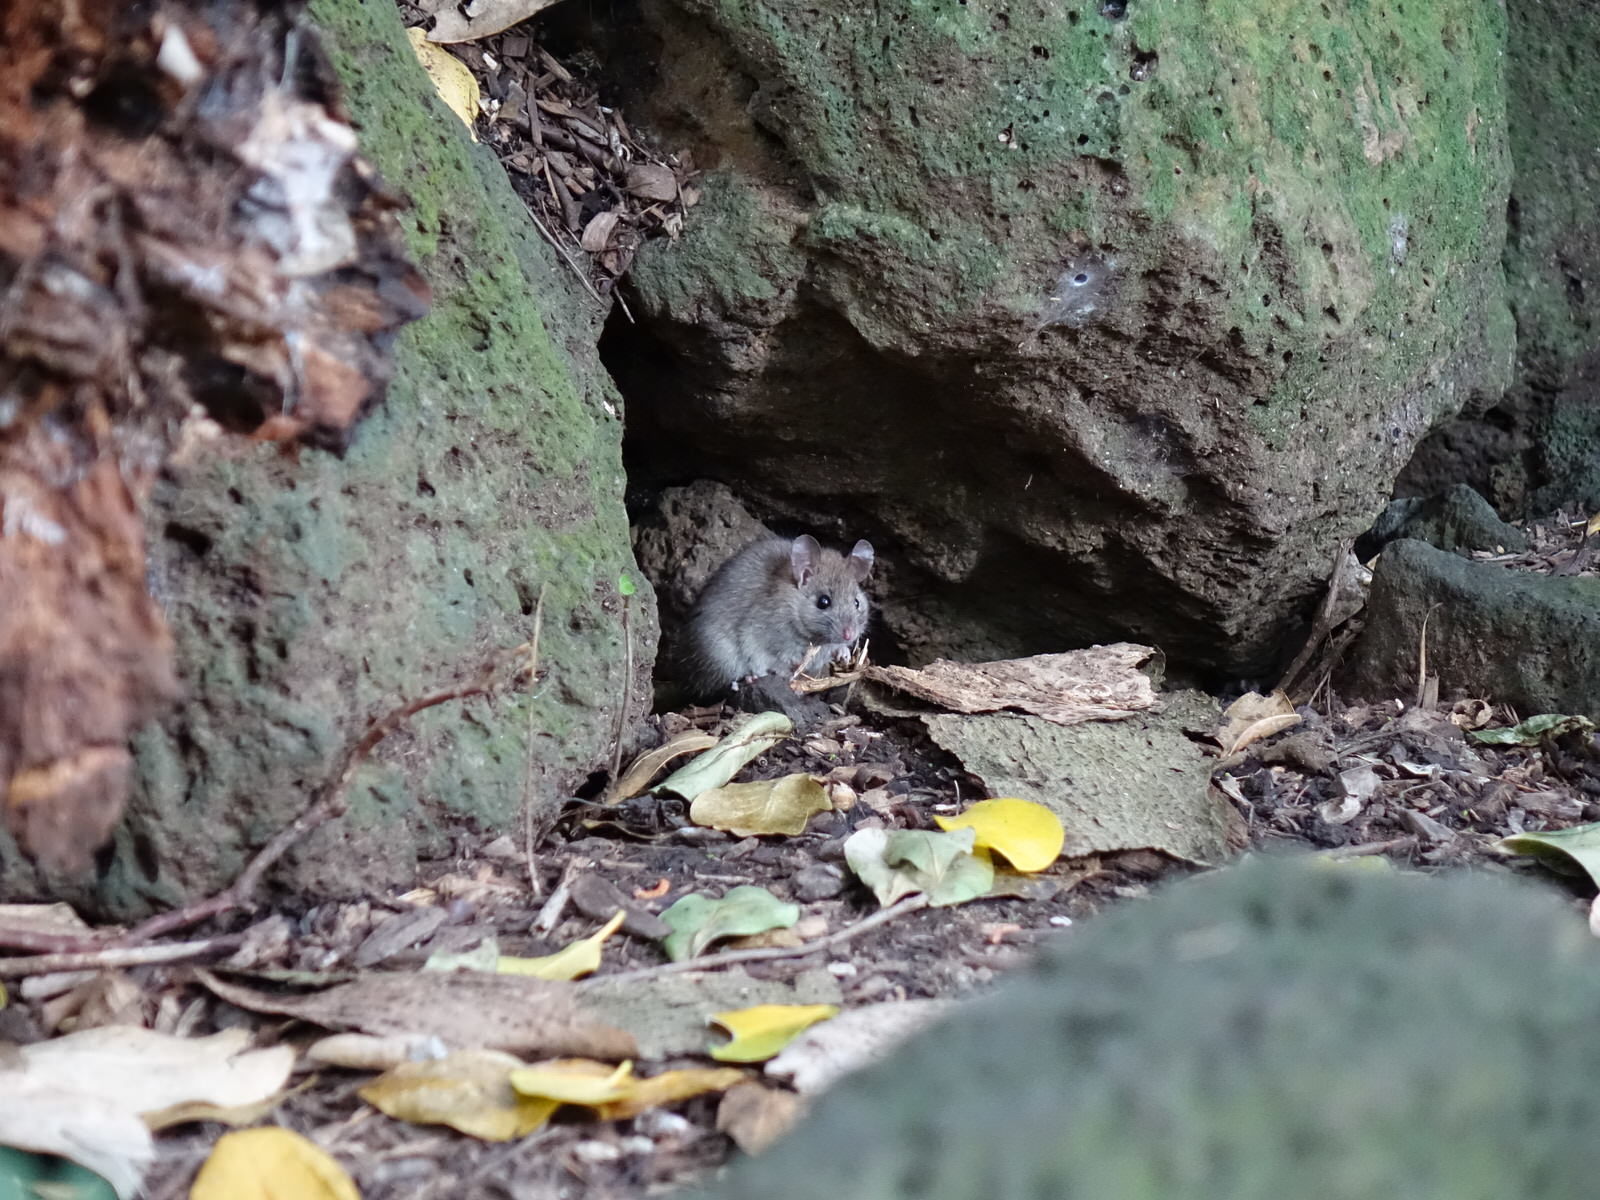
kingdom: Animalia
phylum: Chordata
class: Mammalia
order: Rodentia
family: Muridae
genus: Rattus
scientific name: Rattus rattus
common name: Black rat
